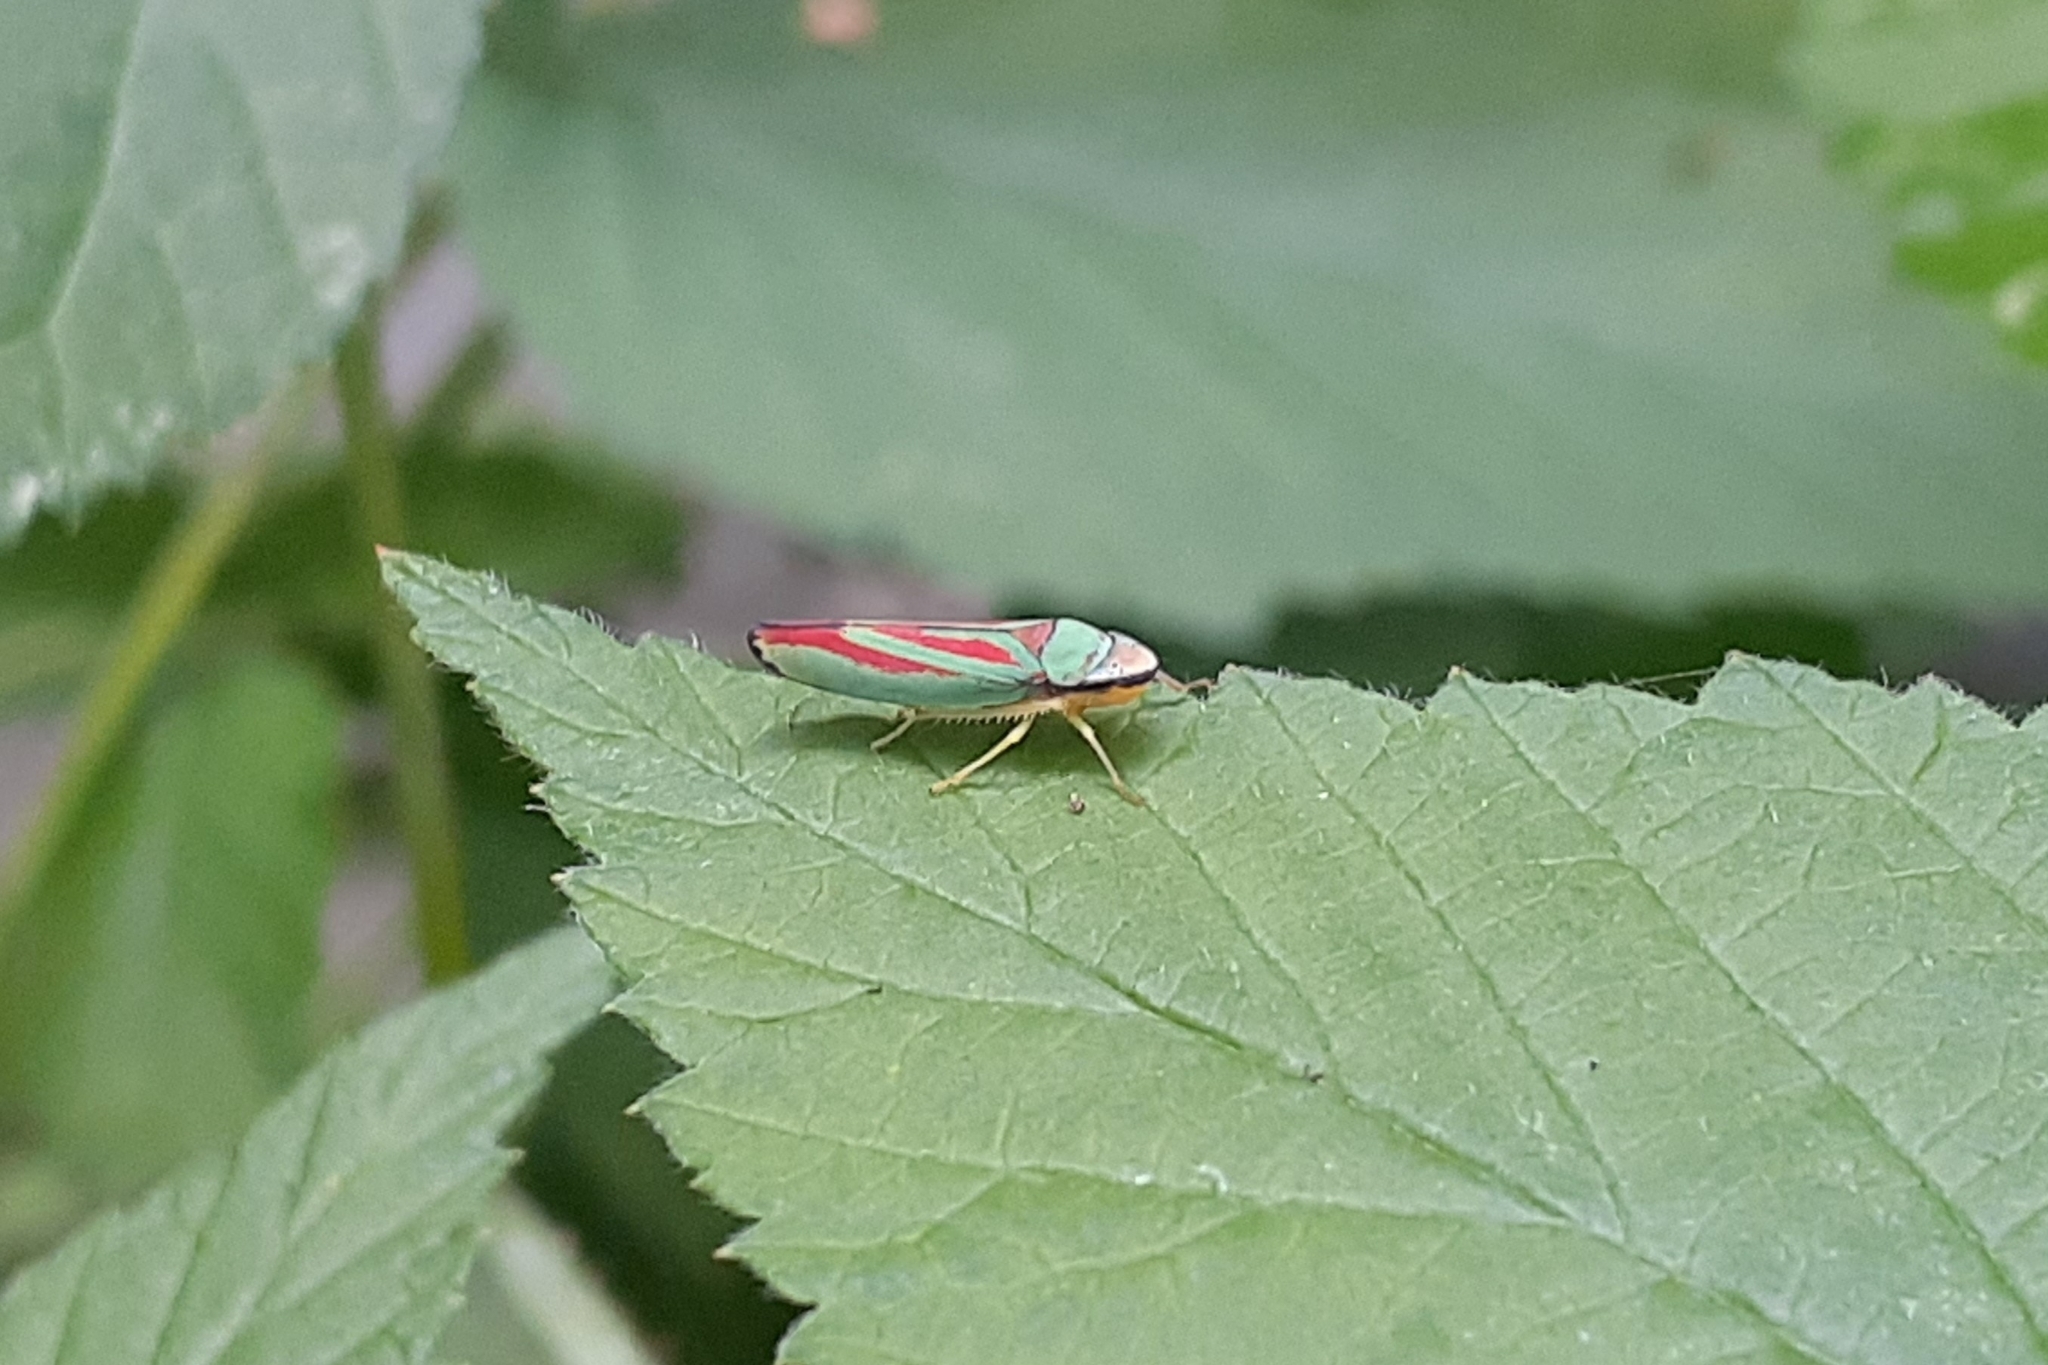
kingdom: Animalia
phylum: Arthropoda
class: Insecta
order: Hemiptera
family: Cicadellidae
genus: Graphocephala
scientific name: Graphocephala fennahi
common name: Rhododendron leafhopper
